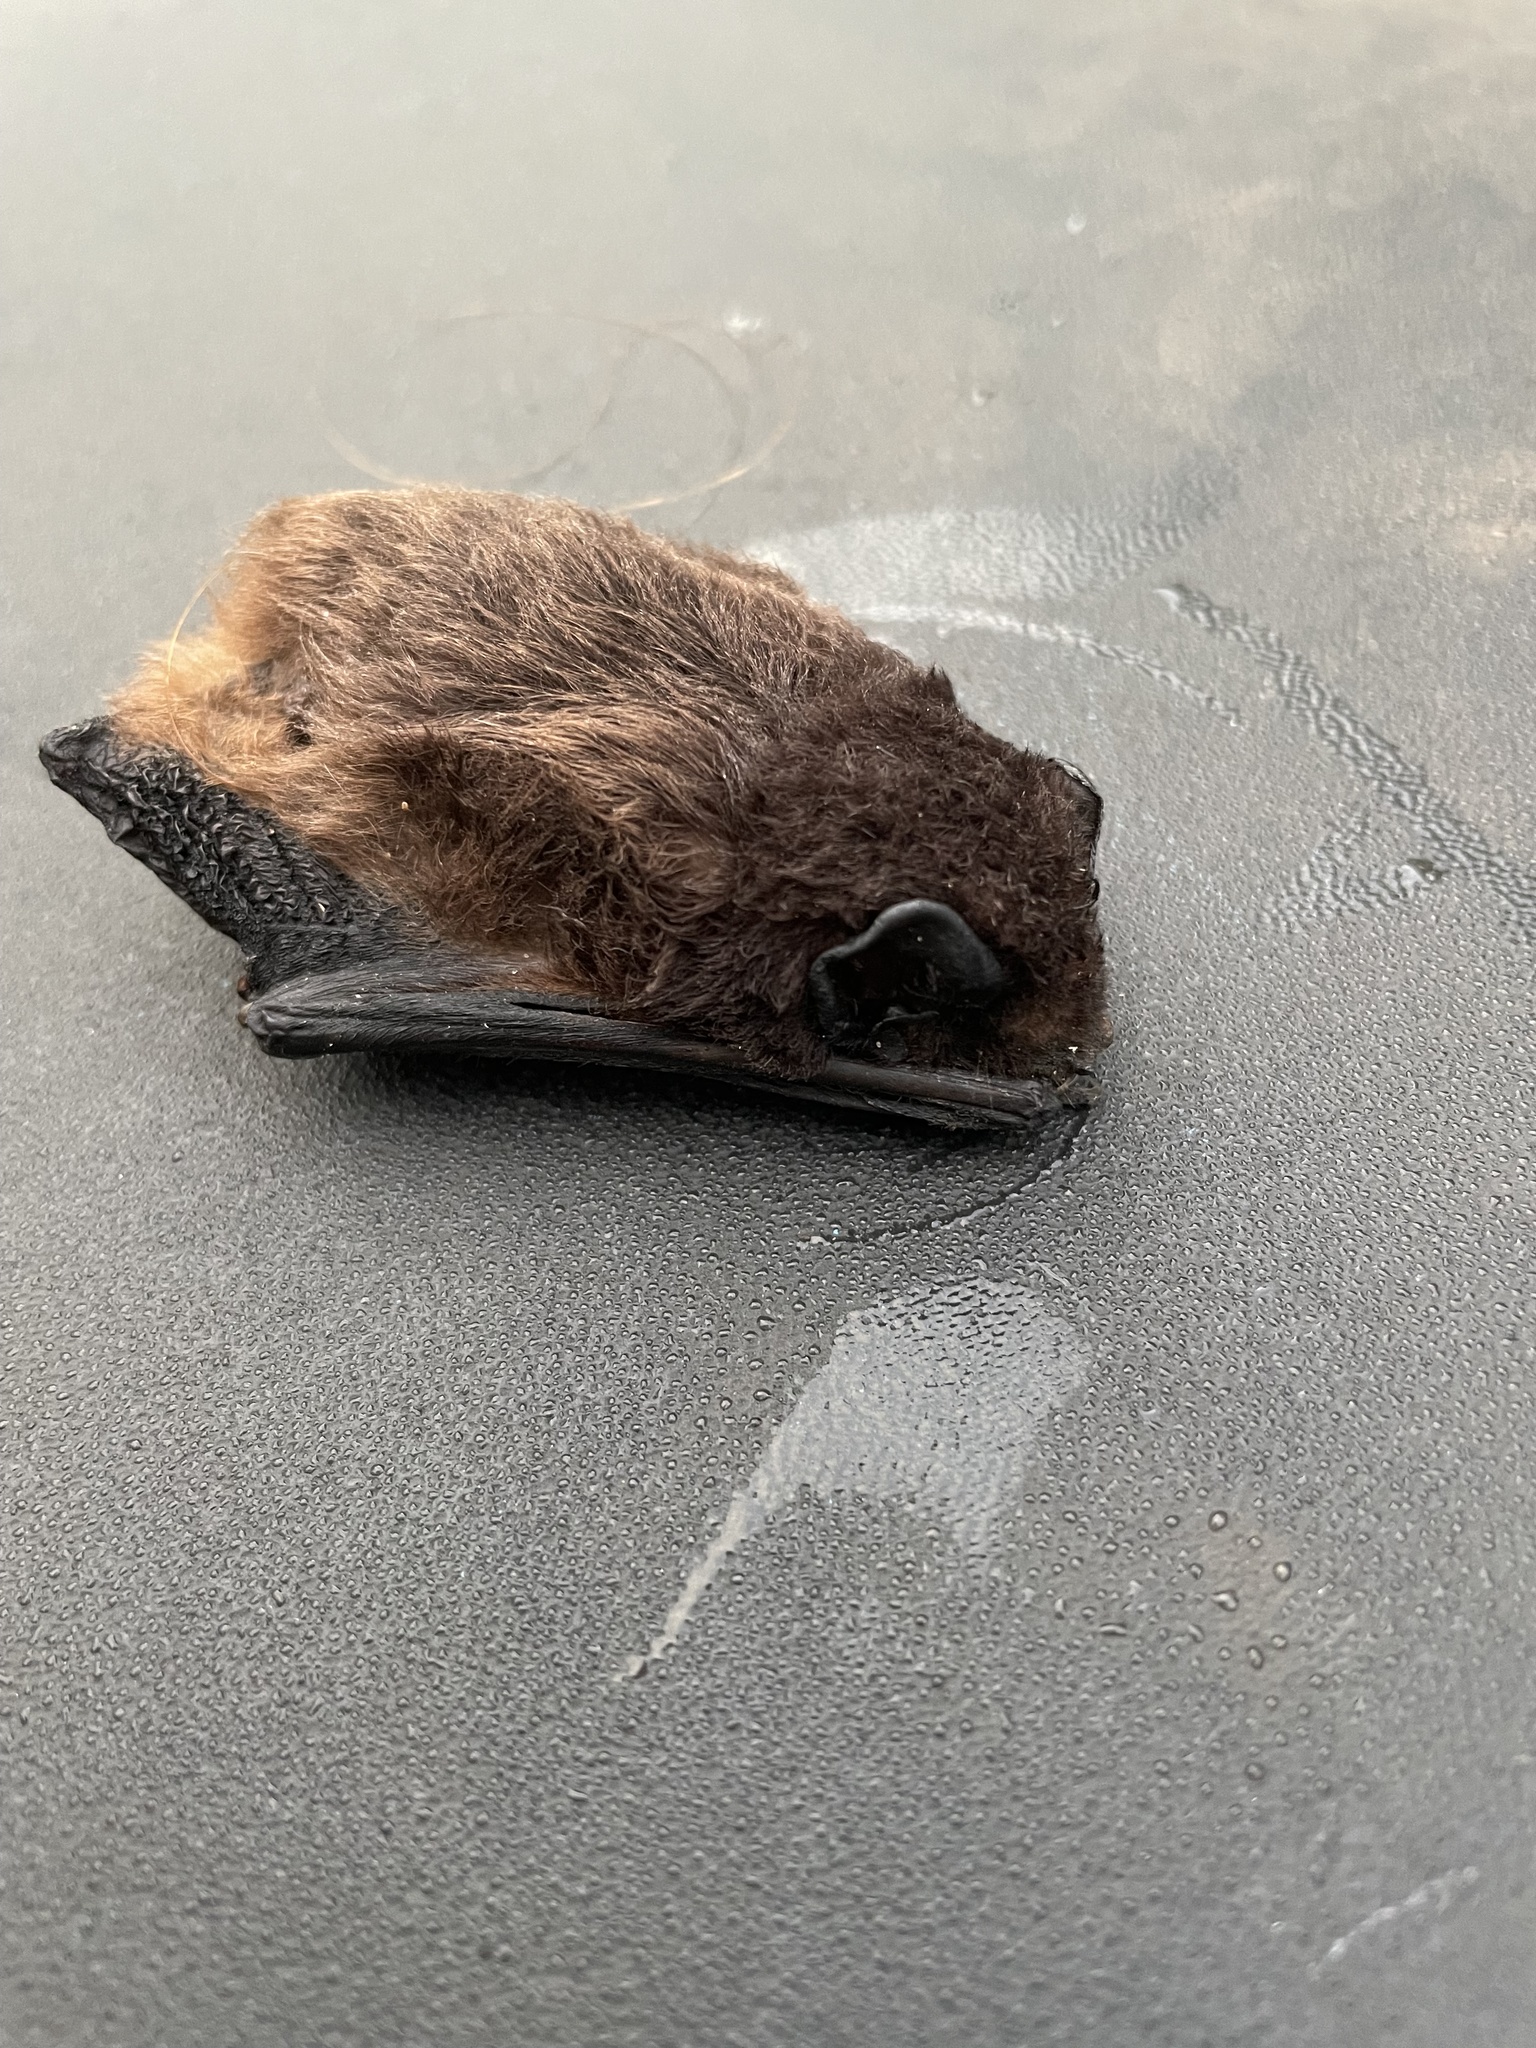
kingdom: Animalia
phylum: Chordata
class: Mammalia
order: Chiroptera
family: Vespertilionidae
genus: Chalinolobus
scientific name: Chalinolobus morio
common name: Chocolate wattled bat
